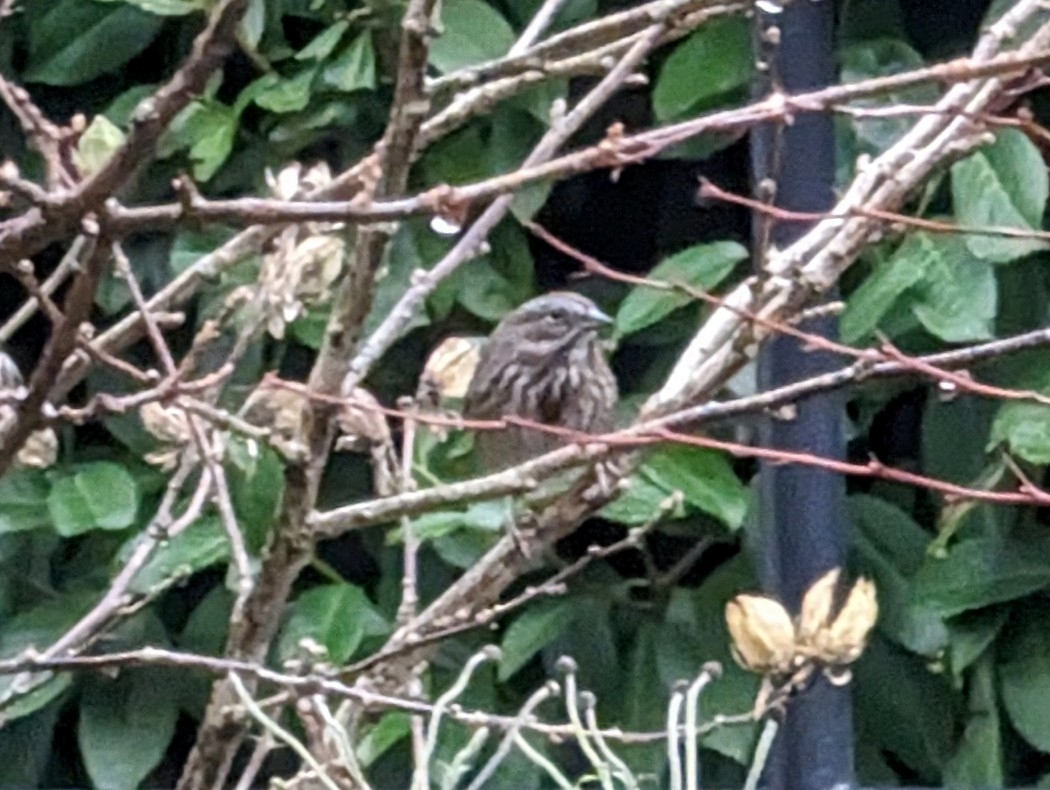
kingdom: Animalia
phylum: Chordata
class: Aves
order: Passeriformes
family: Passerellidae
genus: Melospiza
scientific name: Melospiza melodia
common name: Song sparrow
